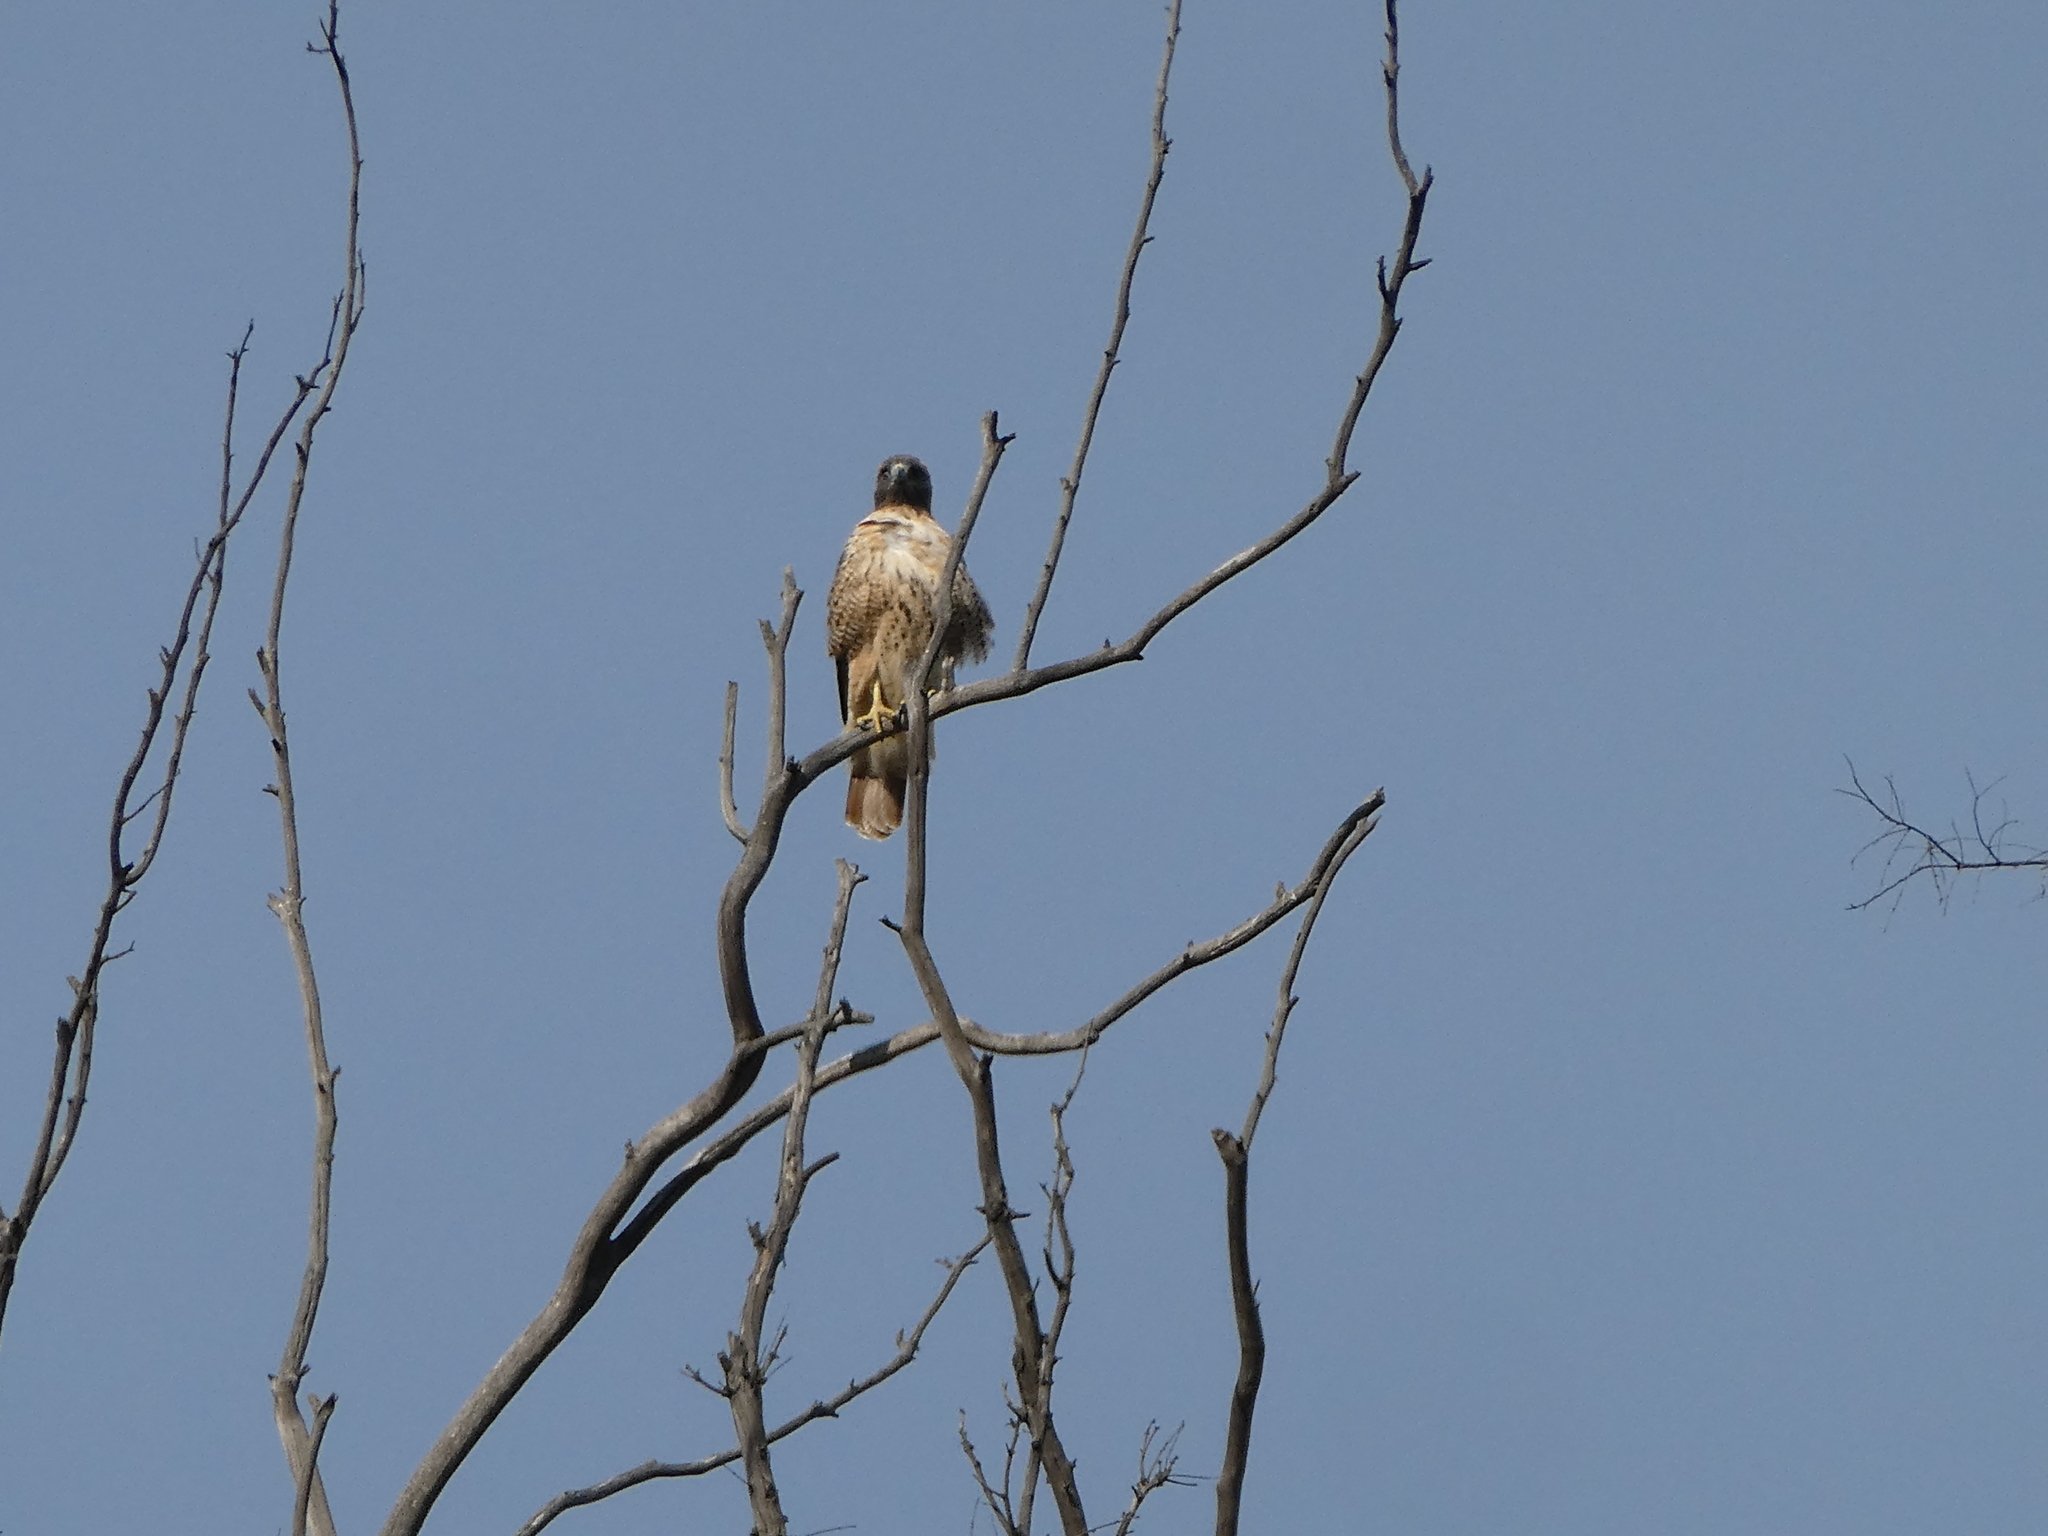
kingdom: Animalia
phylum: Chordata
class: Aves
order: Accipitriformes
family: Accipitridae
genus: Buteo
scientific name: Buteo jamaicensis
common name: Red-tailed hawk
